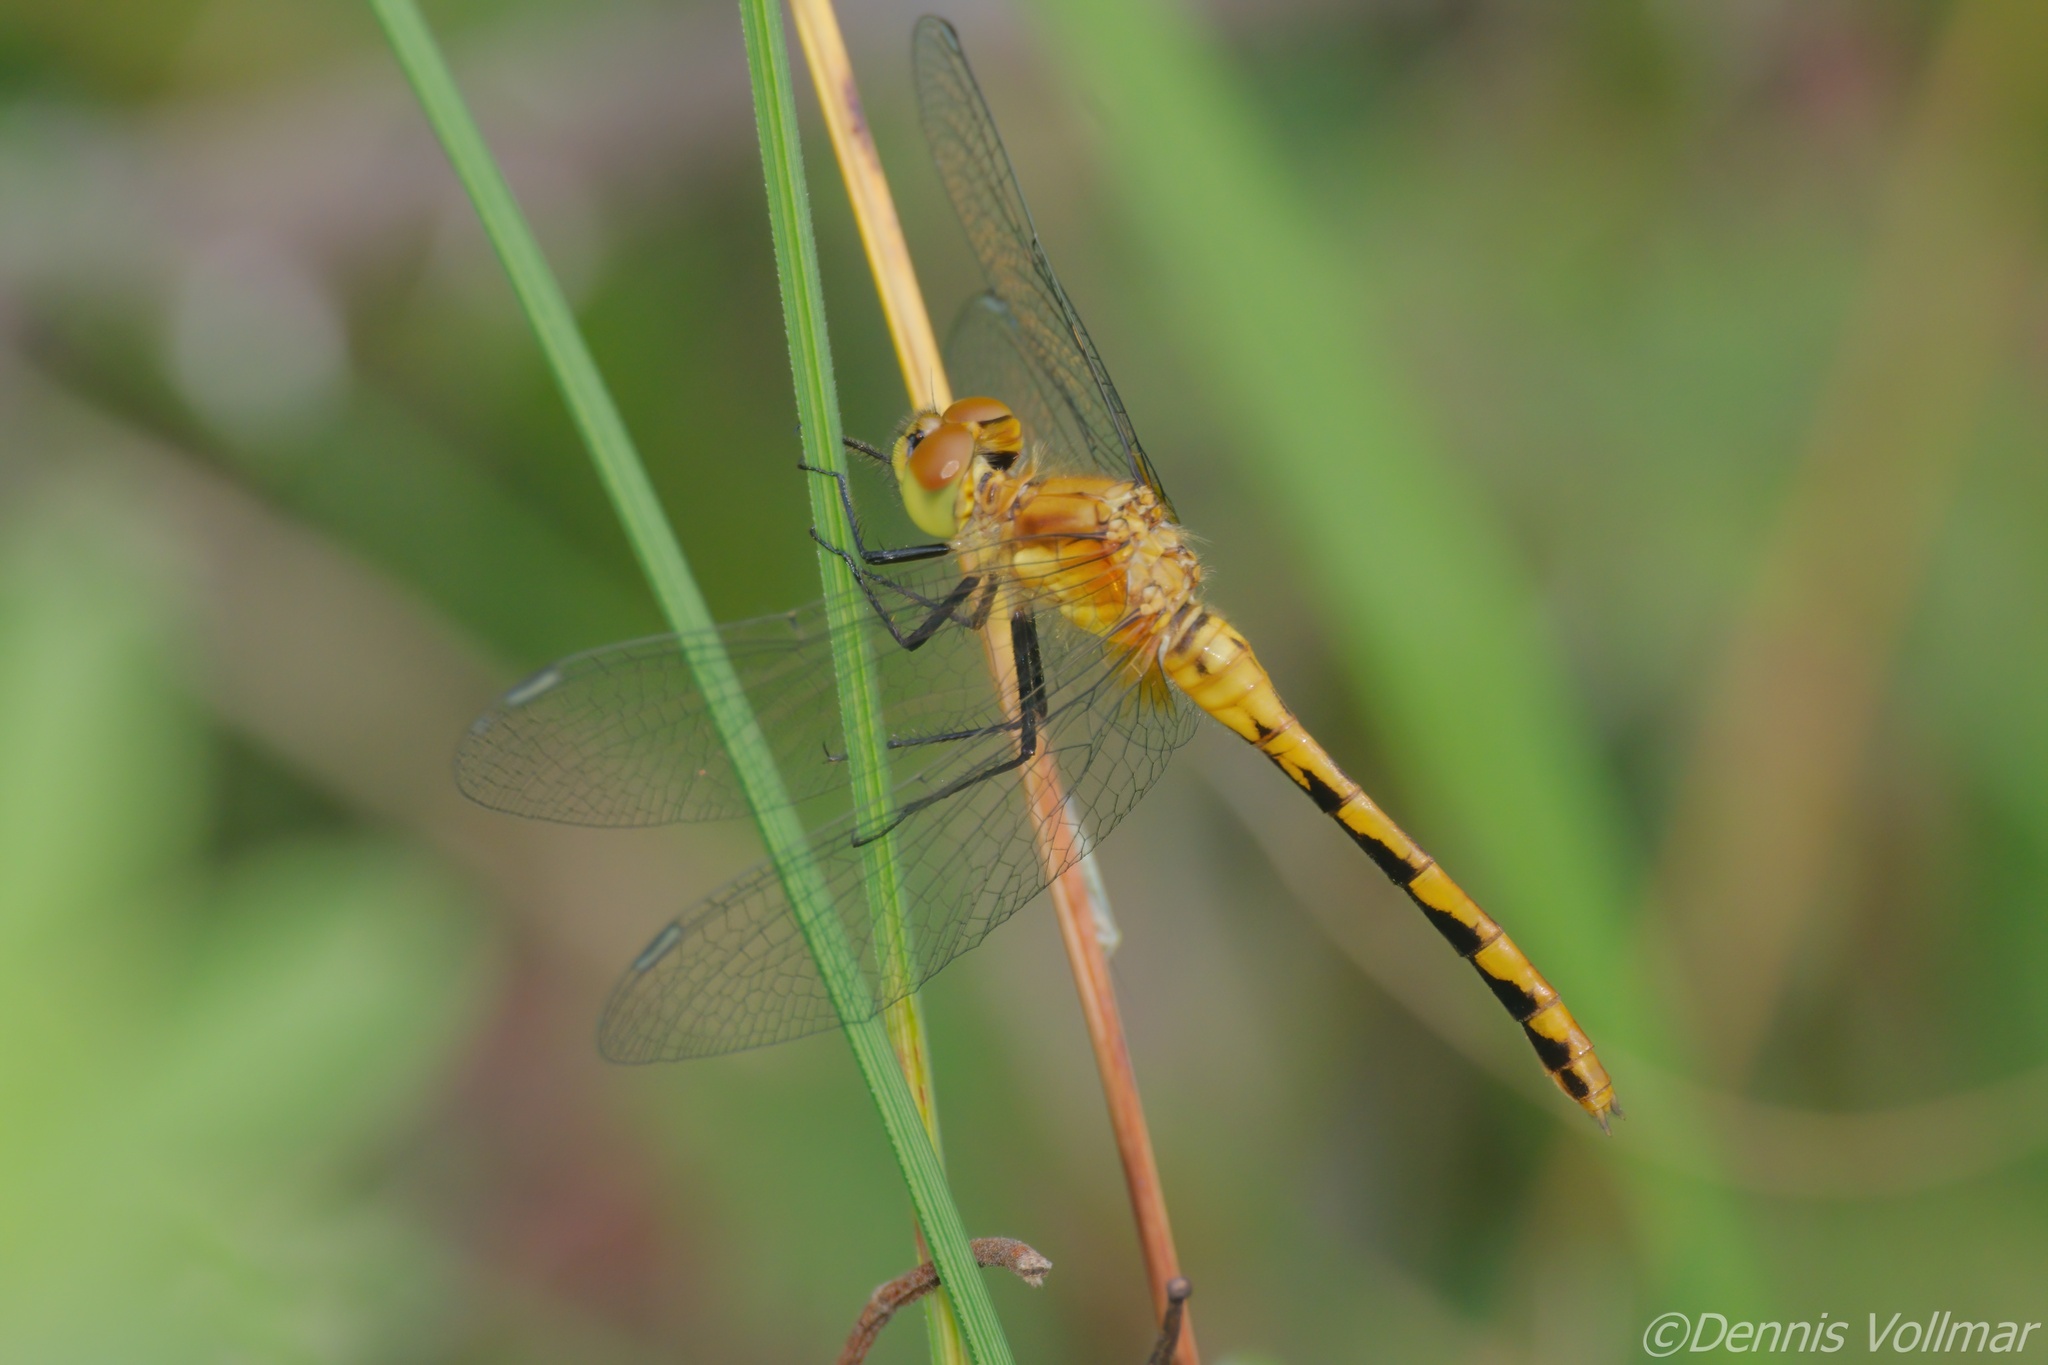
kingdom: Animalia
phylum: Arthropoda
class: Insecta
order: Odonata
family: Libellulidae
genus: Sympetrum
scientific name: Sympetrum
